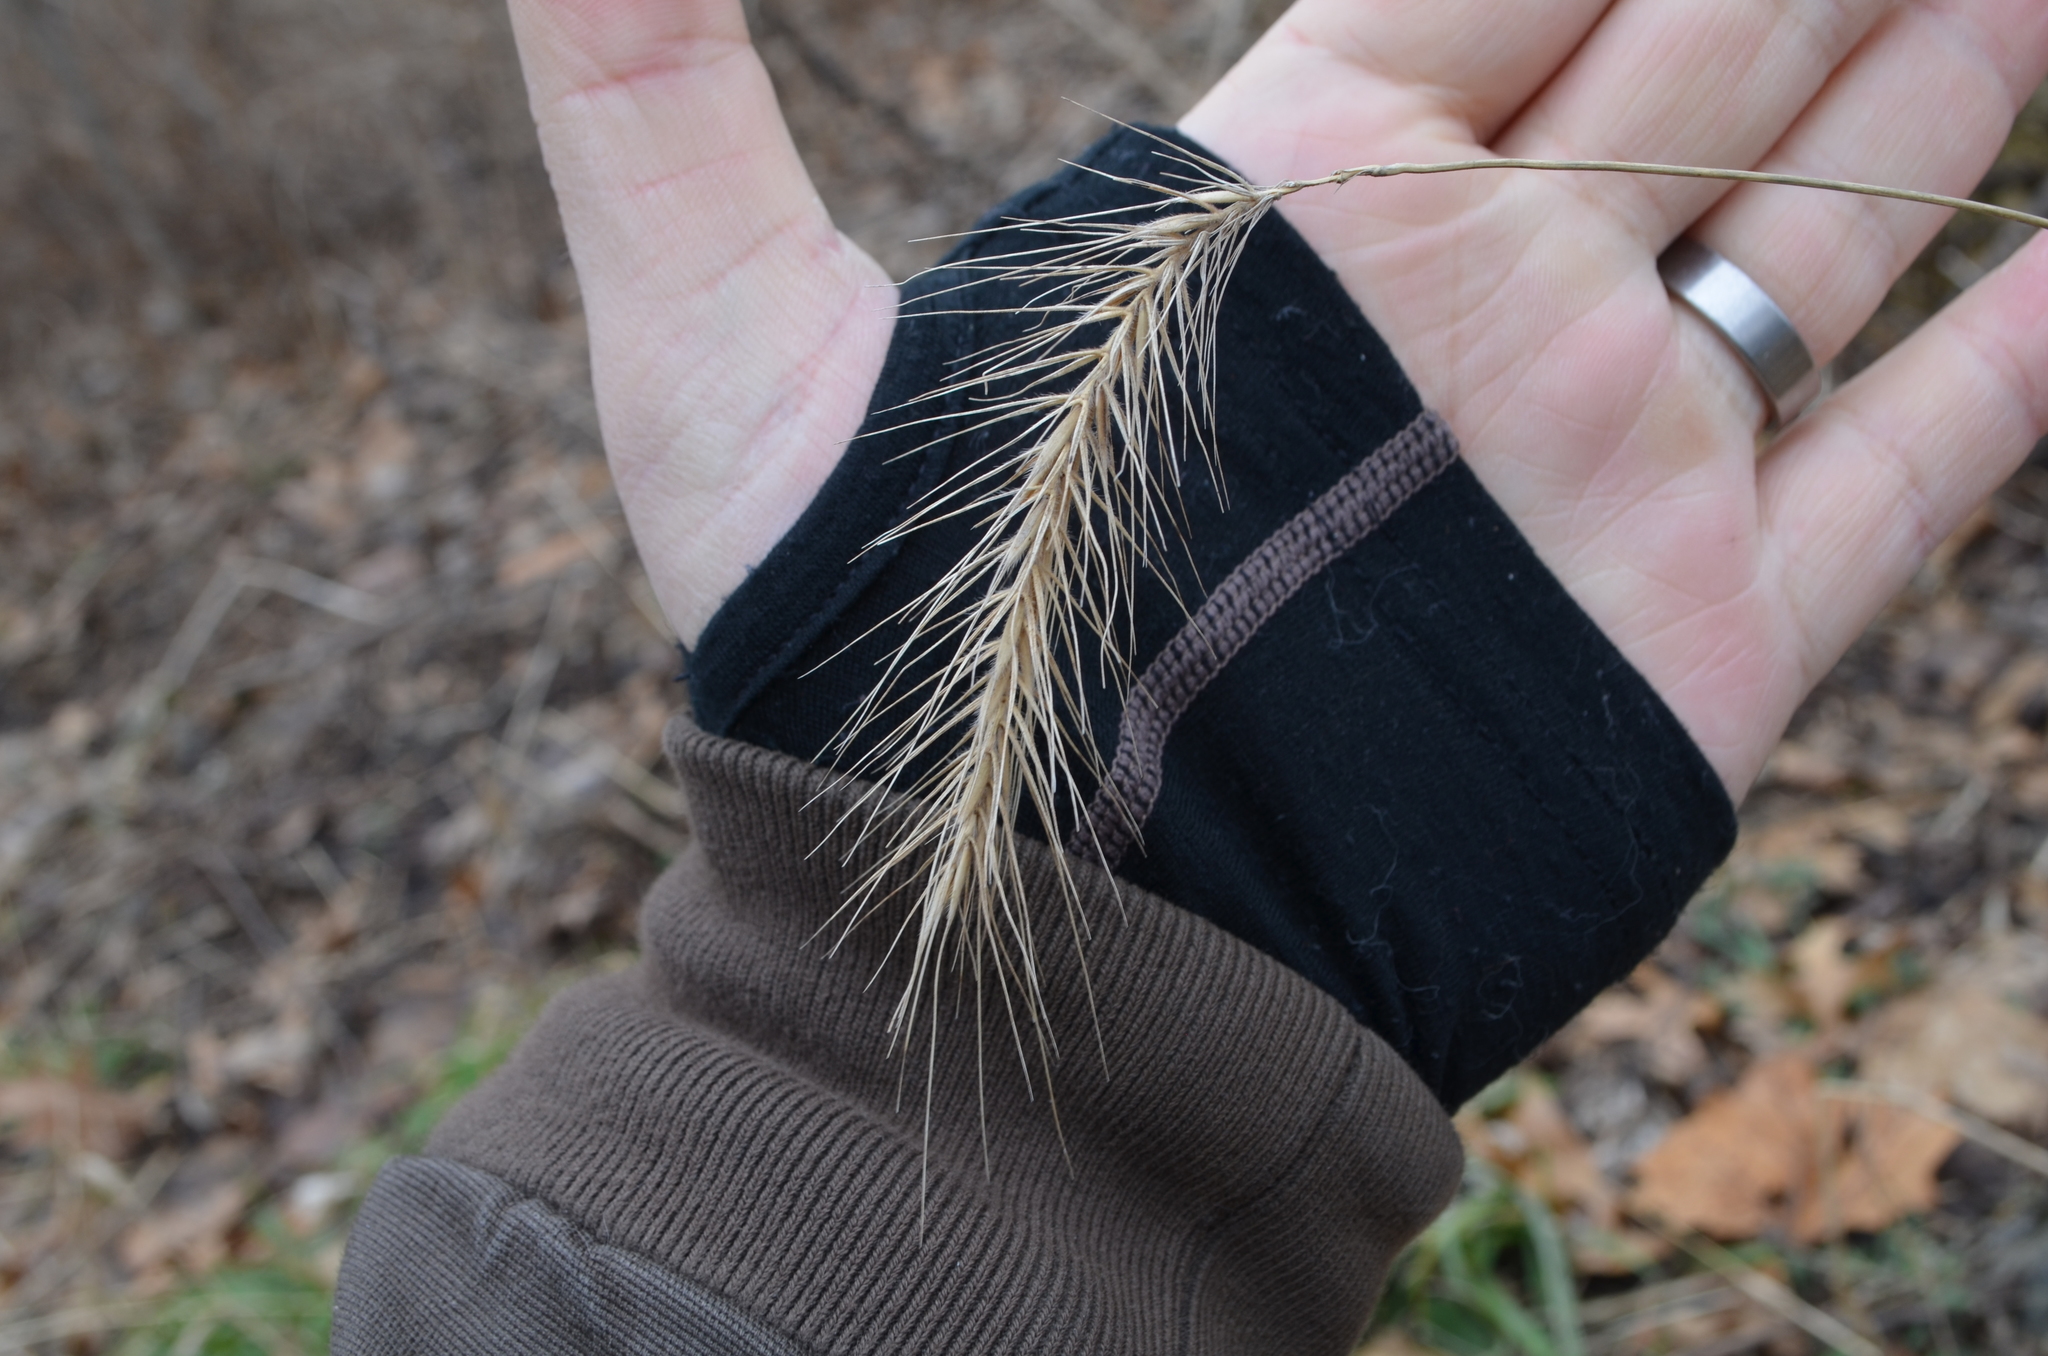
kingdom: Plantae
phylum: Tracheophyta
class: Liliopsida
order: Poales
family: Poaceae
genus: Elymus
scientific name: Elymus villosus
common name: Downy wild rye
